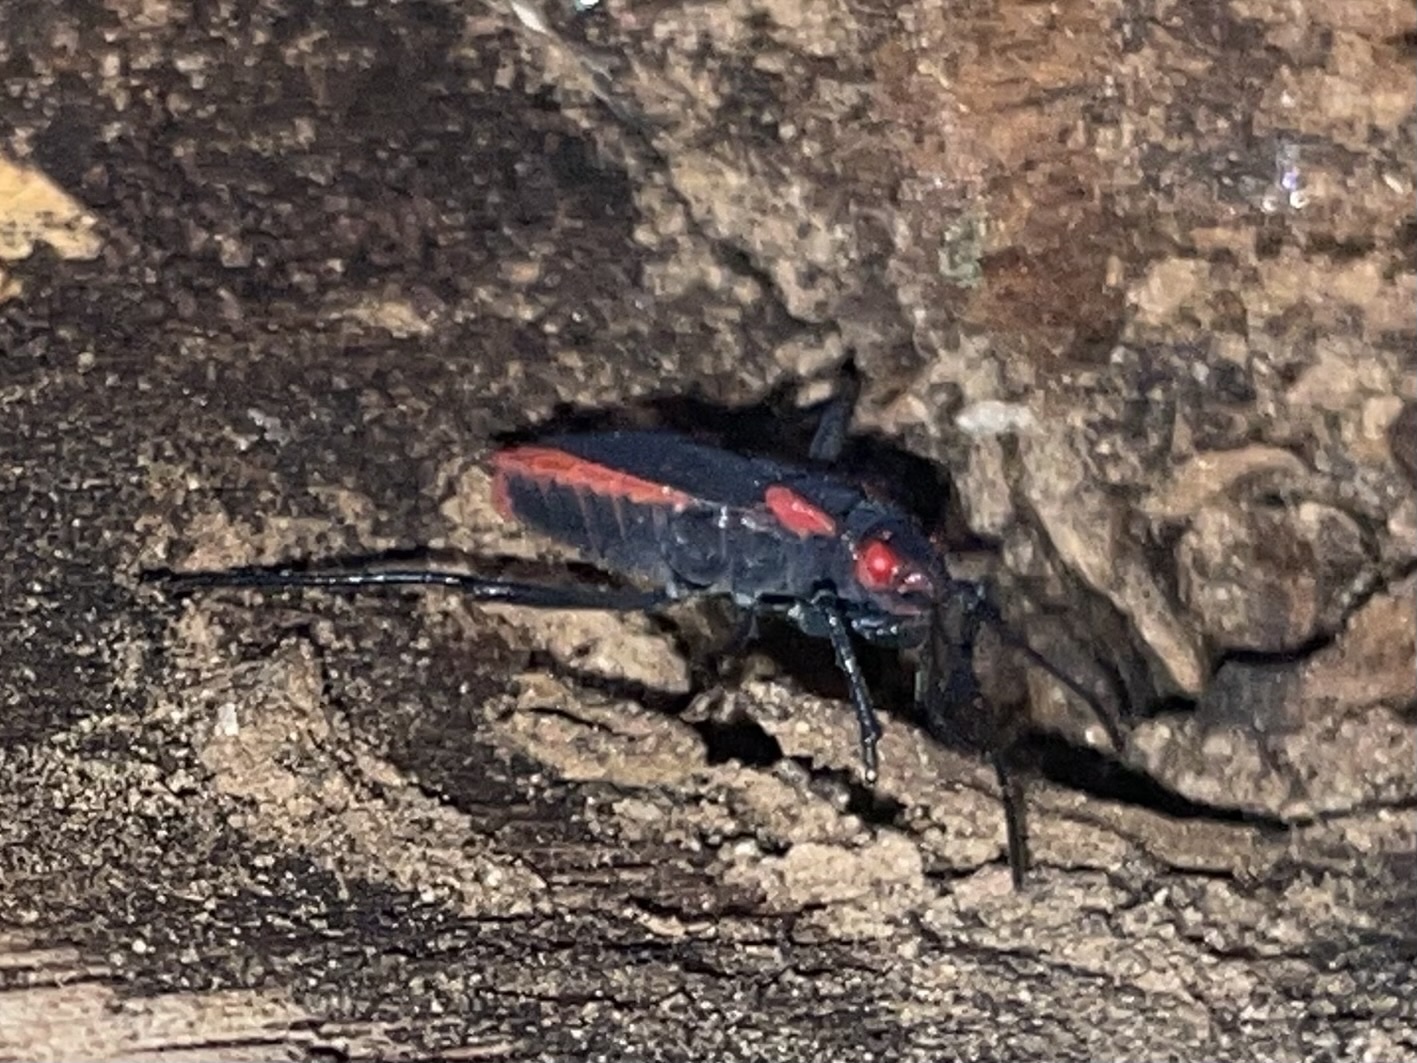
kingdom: Animalia
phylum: Arthropoda
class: Insecta
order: Hemiptera
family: Rhopalidae
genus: Jadera
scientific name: Jadera haematoloma
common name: Red-shouldered bug
